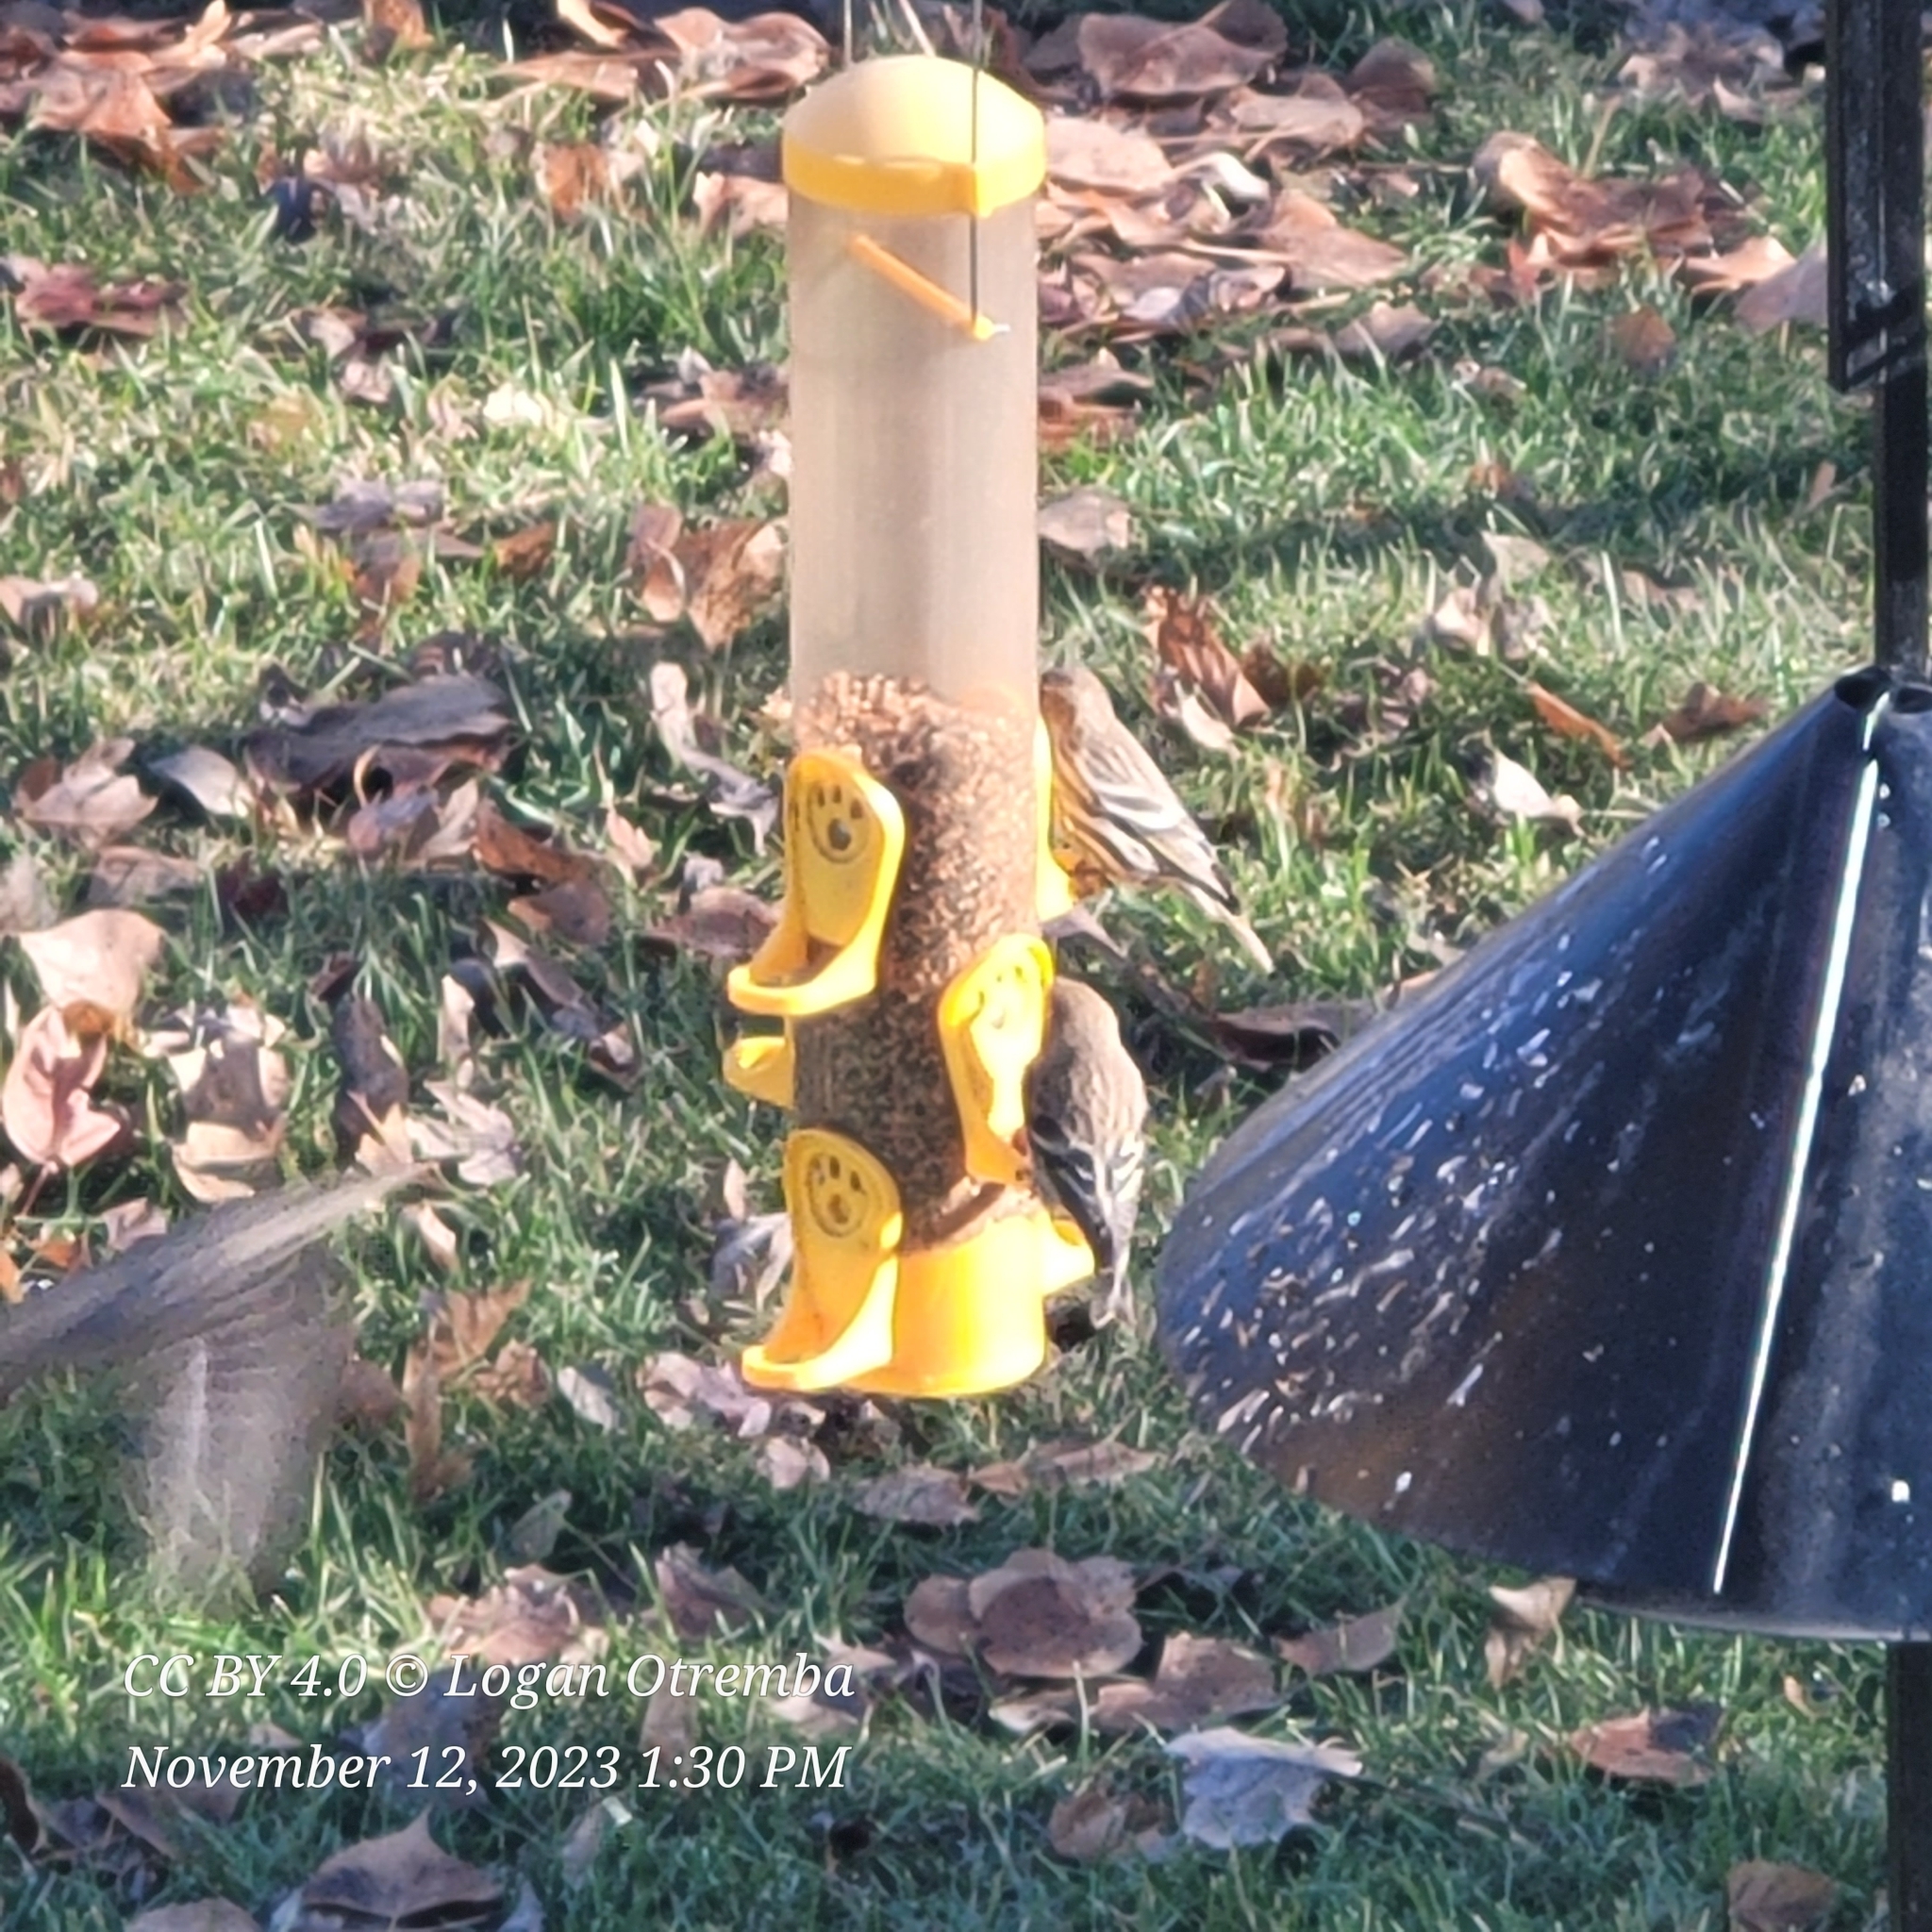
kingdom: Animalia
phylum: Chordata
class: Aves
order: Passeriformes
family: Fringillidae
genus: Spinus
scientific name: Spinus pinus
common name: Pine siskin
